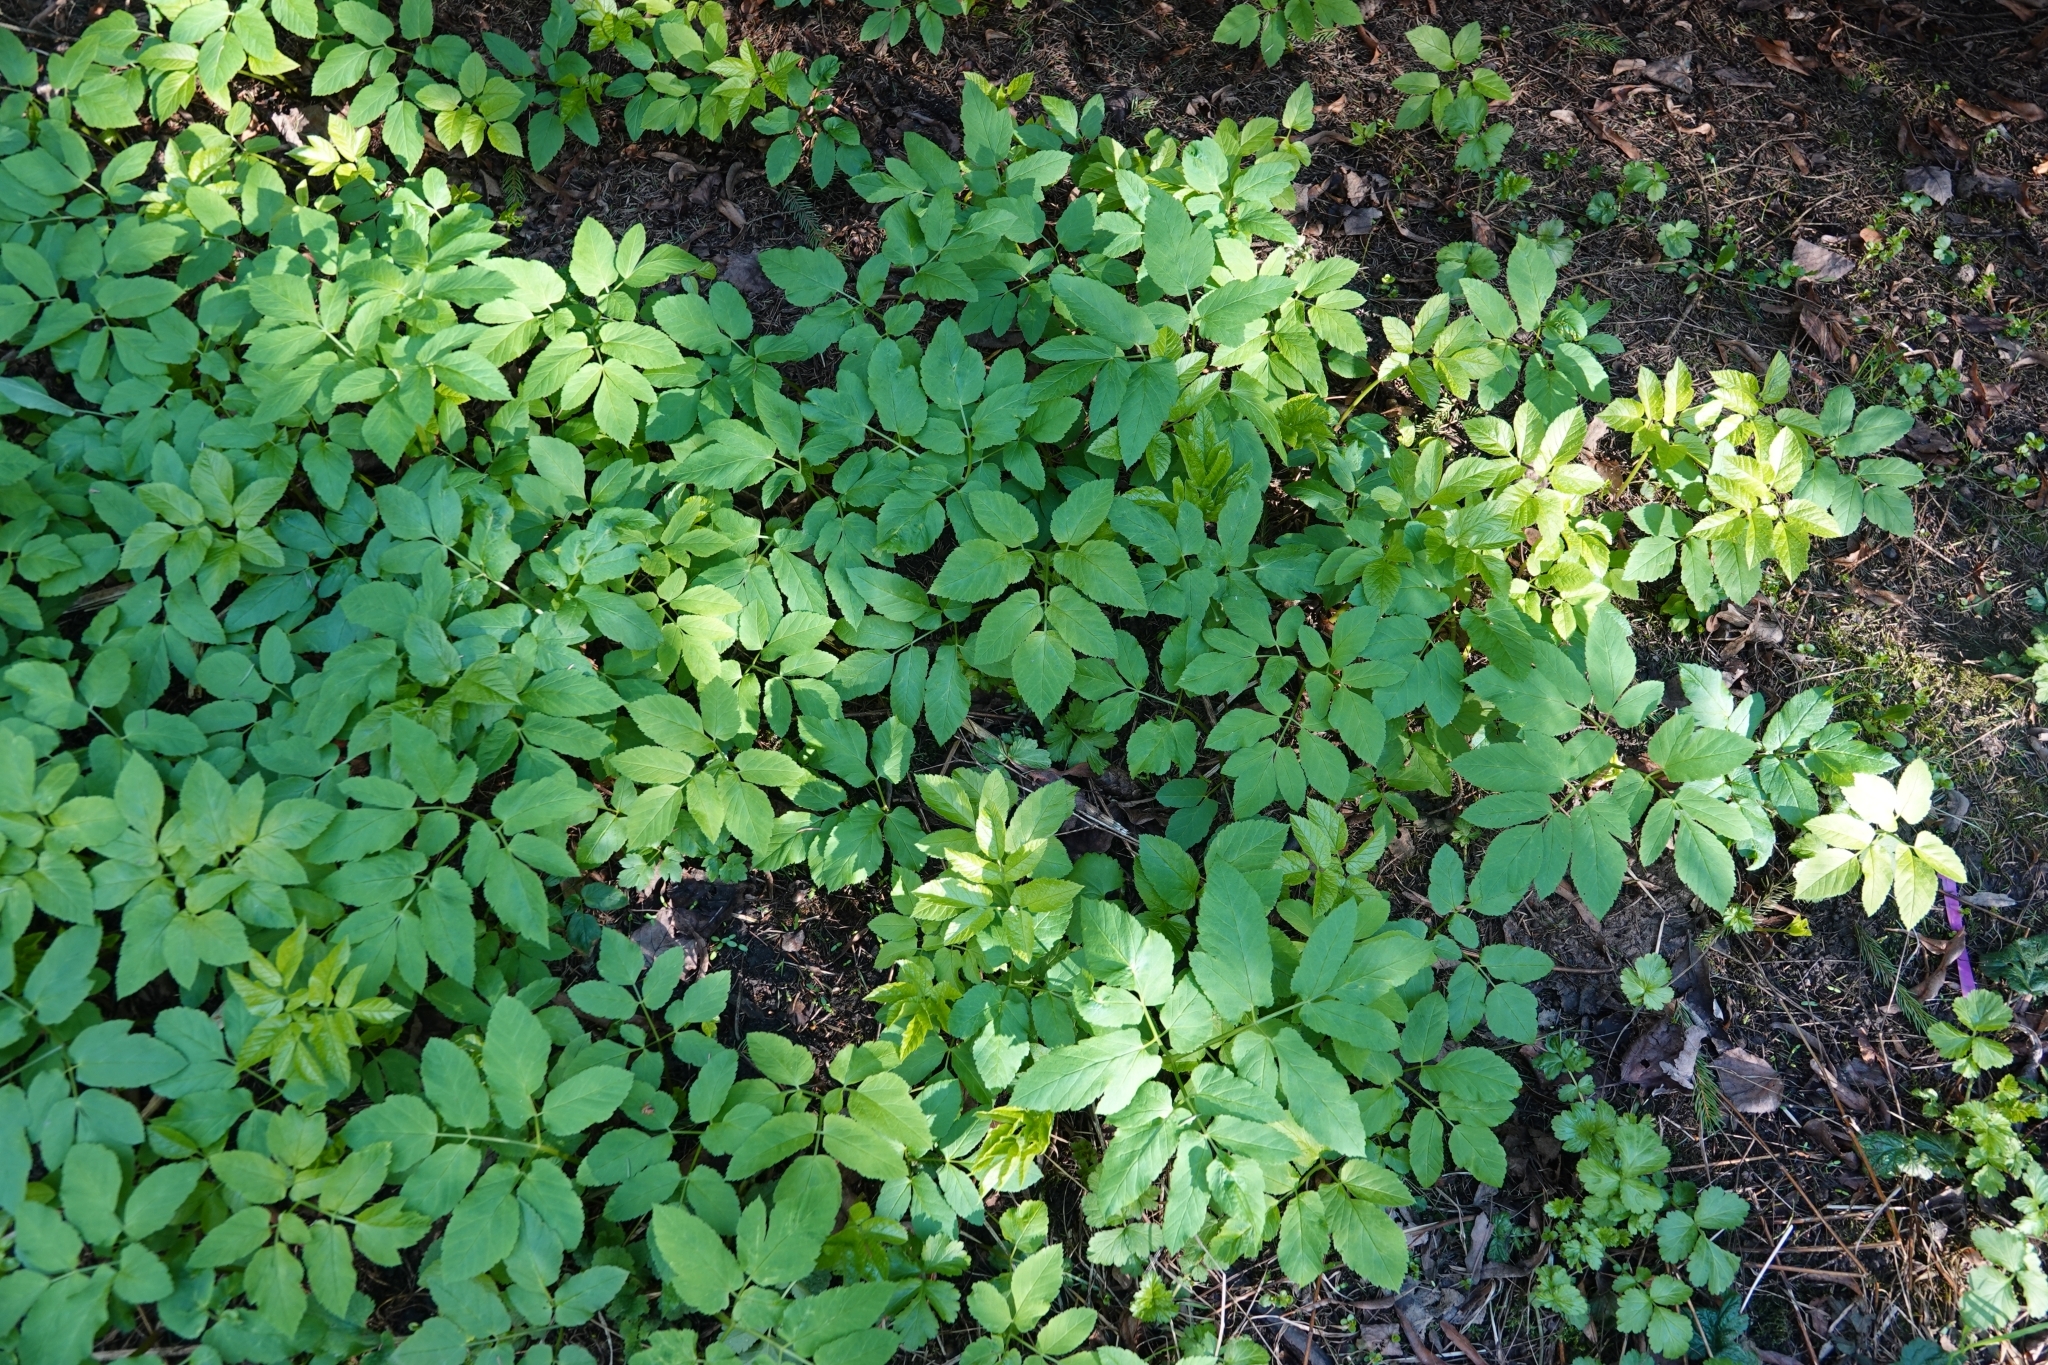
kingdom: Plantae
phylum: Tracheophyta
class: Magnoliopsida
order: Apiales
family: Apiaceae
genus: Aegopodium
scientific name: Aegopodium podagraria
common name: Ground-elder
